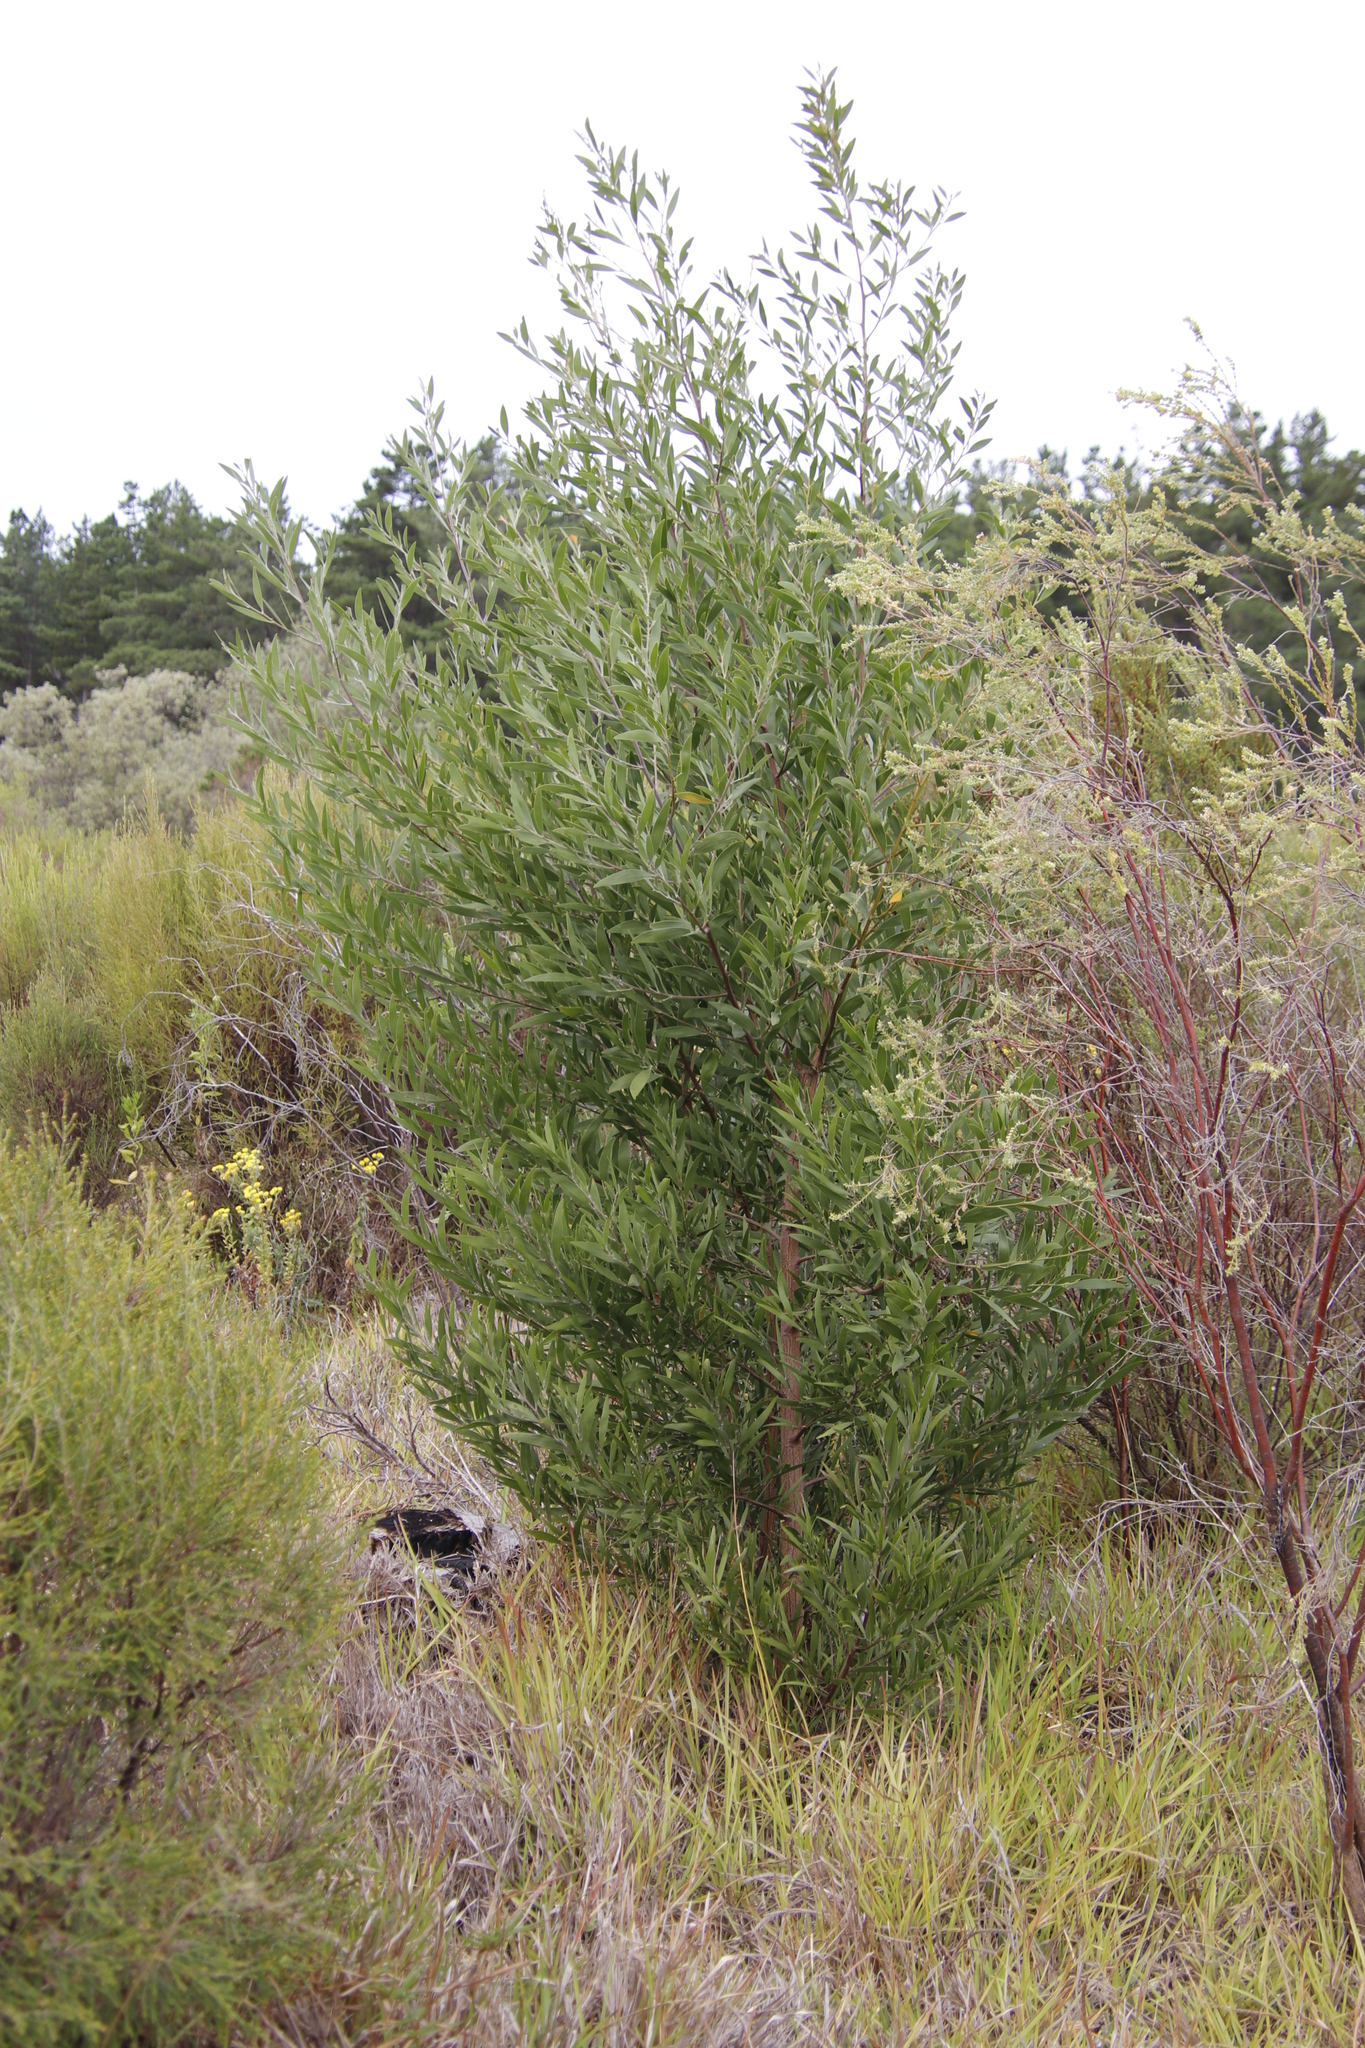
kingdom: Plantae
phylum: Tracheophyta
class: Magnoliopsida
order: Fabales
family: Fabaceae
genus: Acacia
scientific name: Acacia melanoxylon
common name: Blackwood
